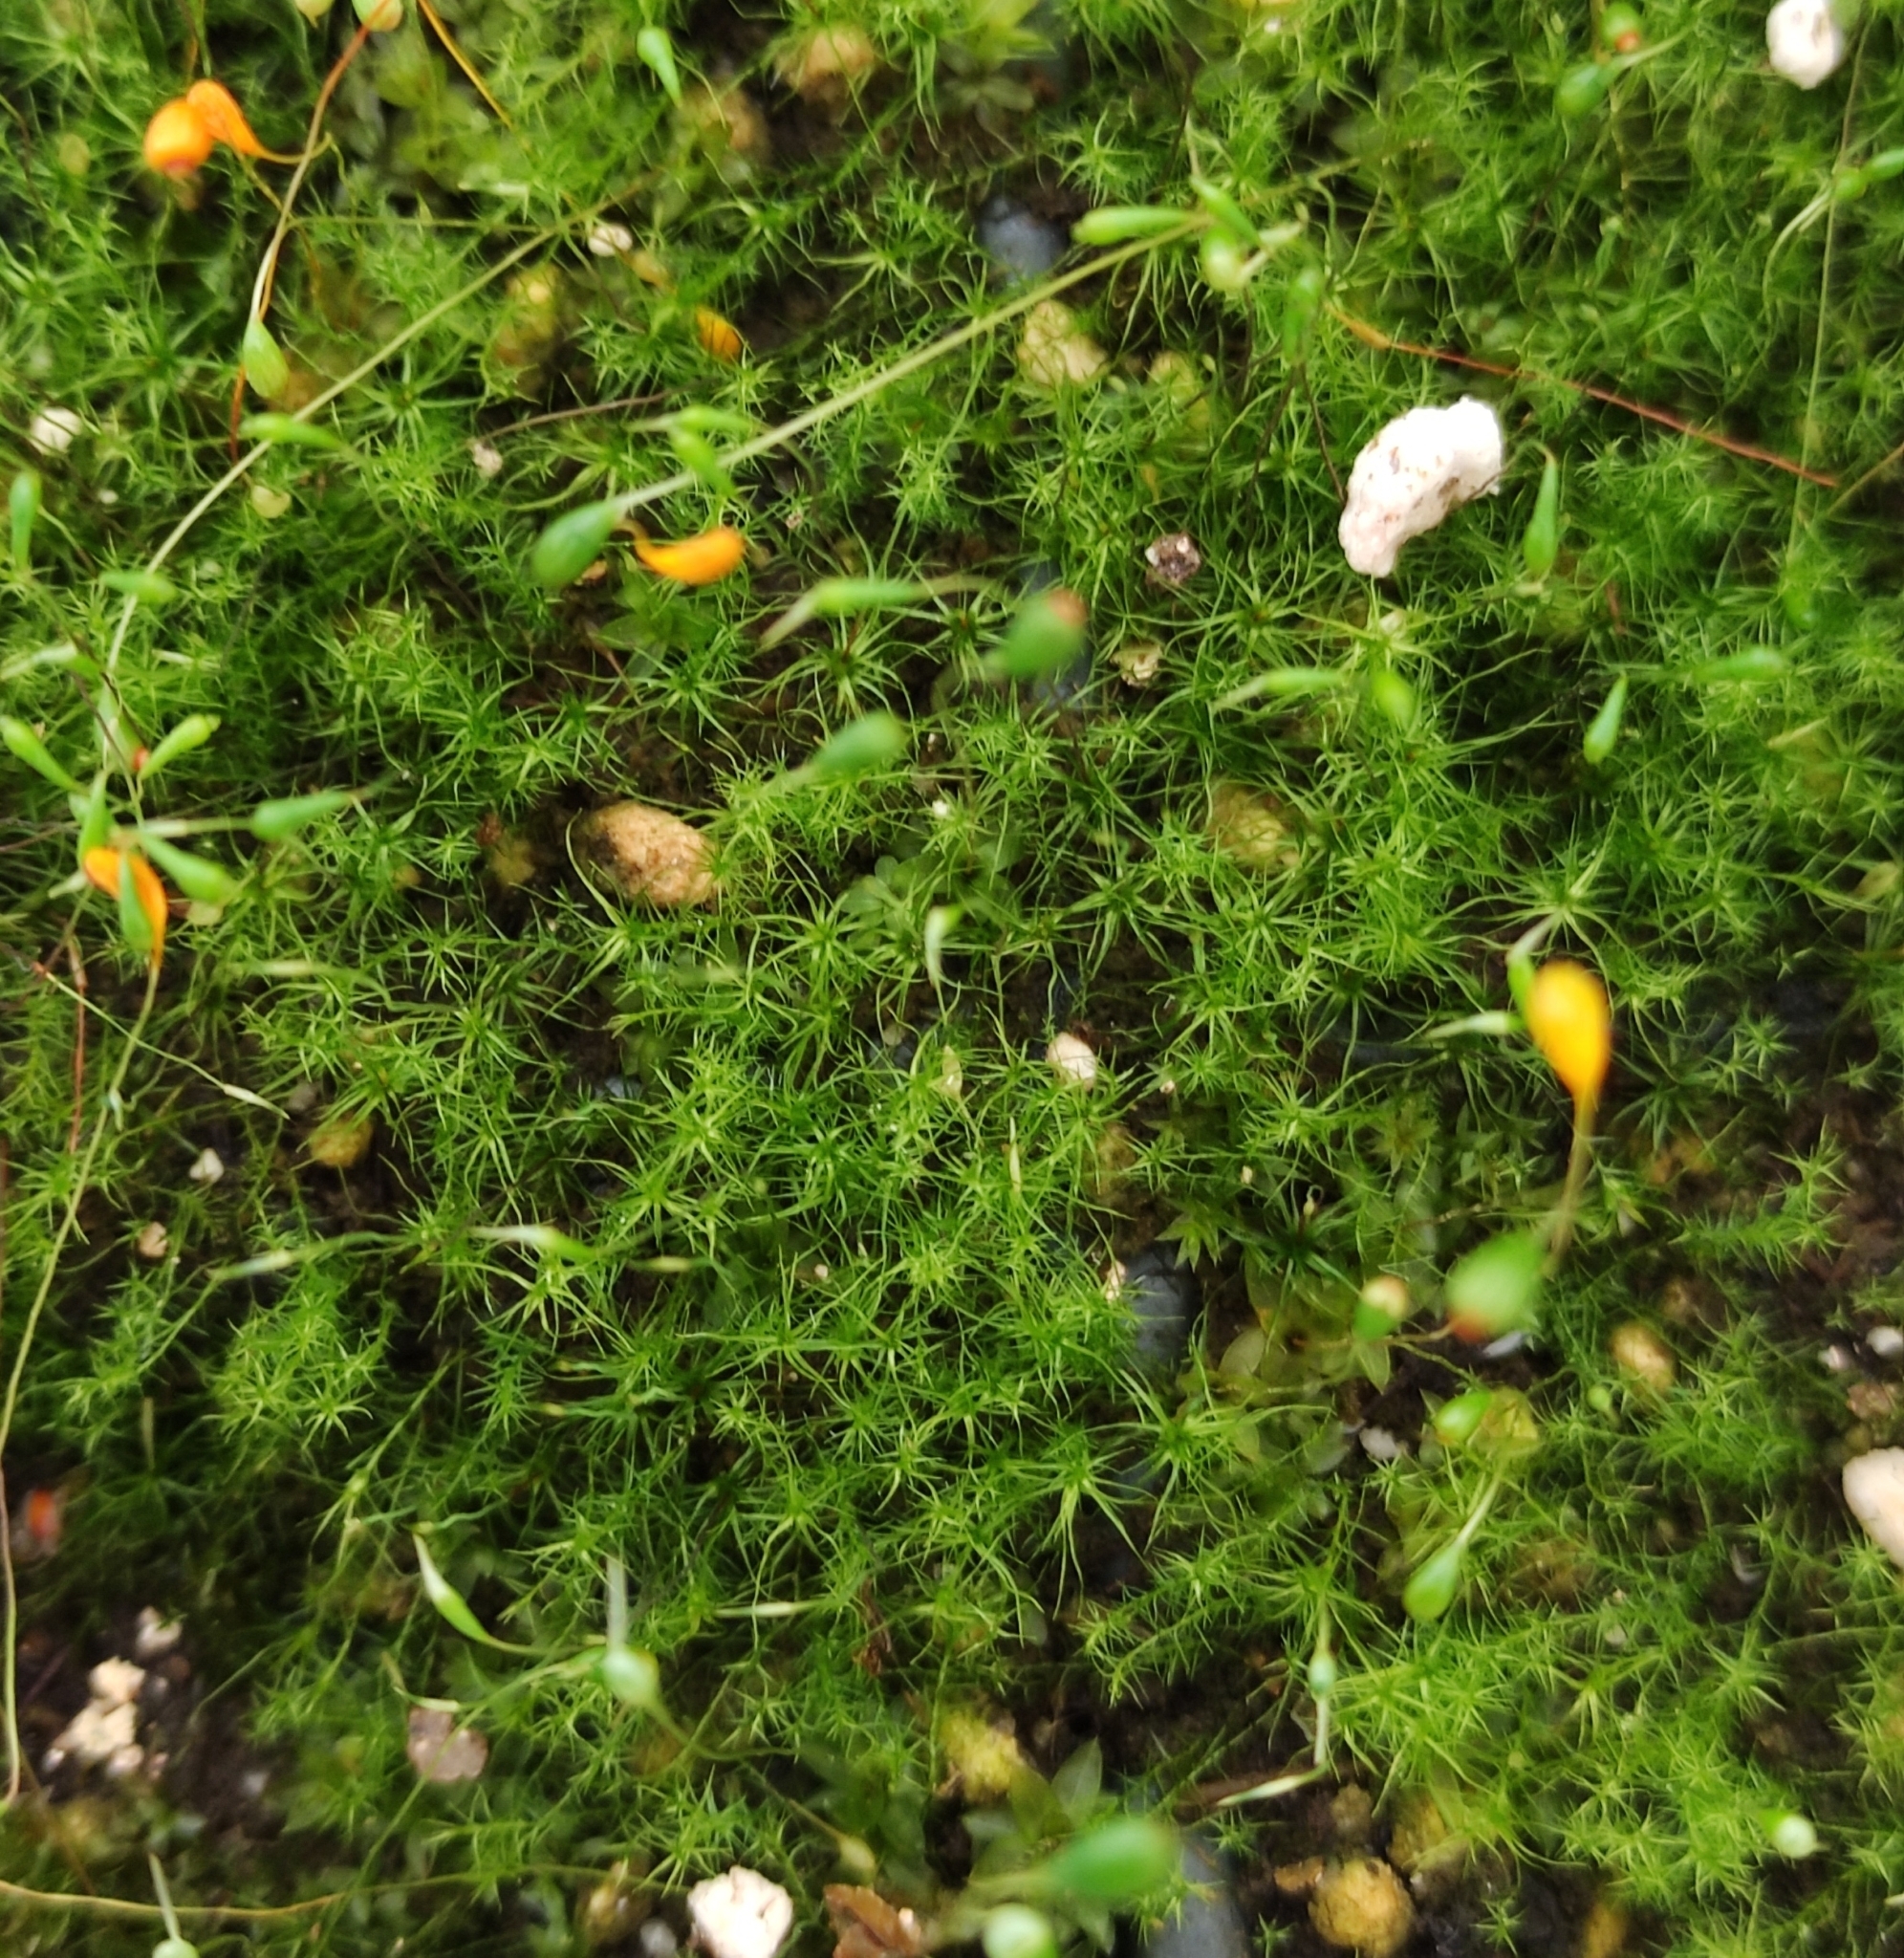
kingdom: Plantae
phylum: Bryophyta
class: Bryopsida
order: Splachnales
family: Meesiaceae
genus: Leptobryum
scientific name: Leptobryum pyriforme
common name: Golden thread moss
